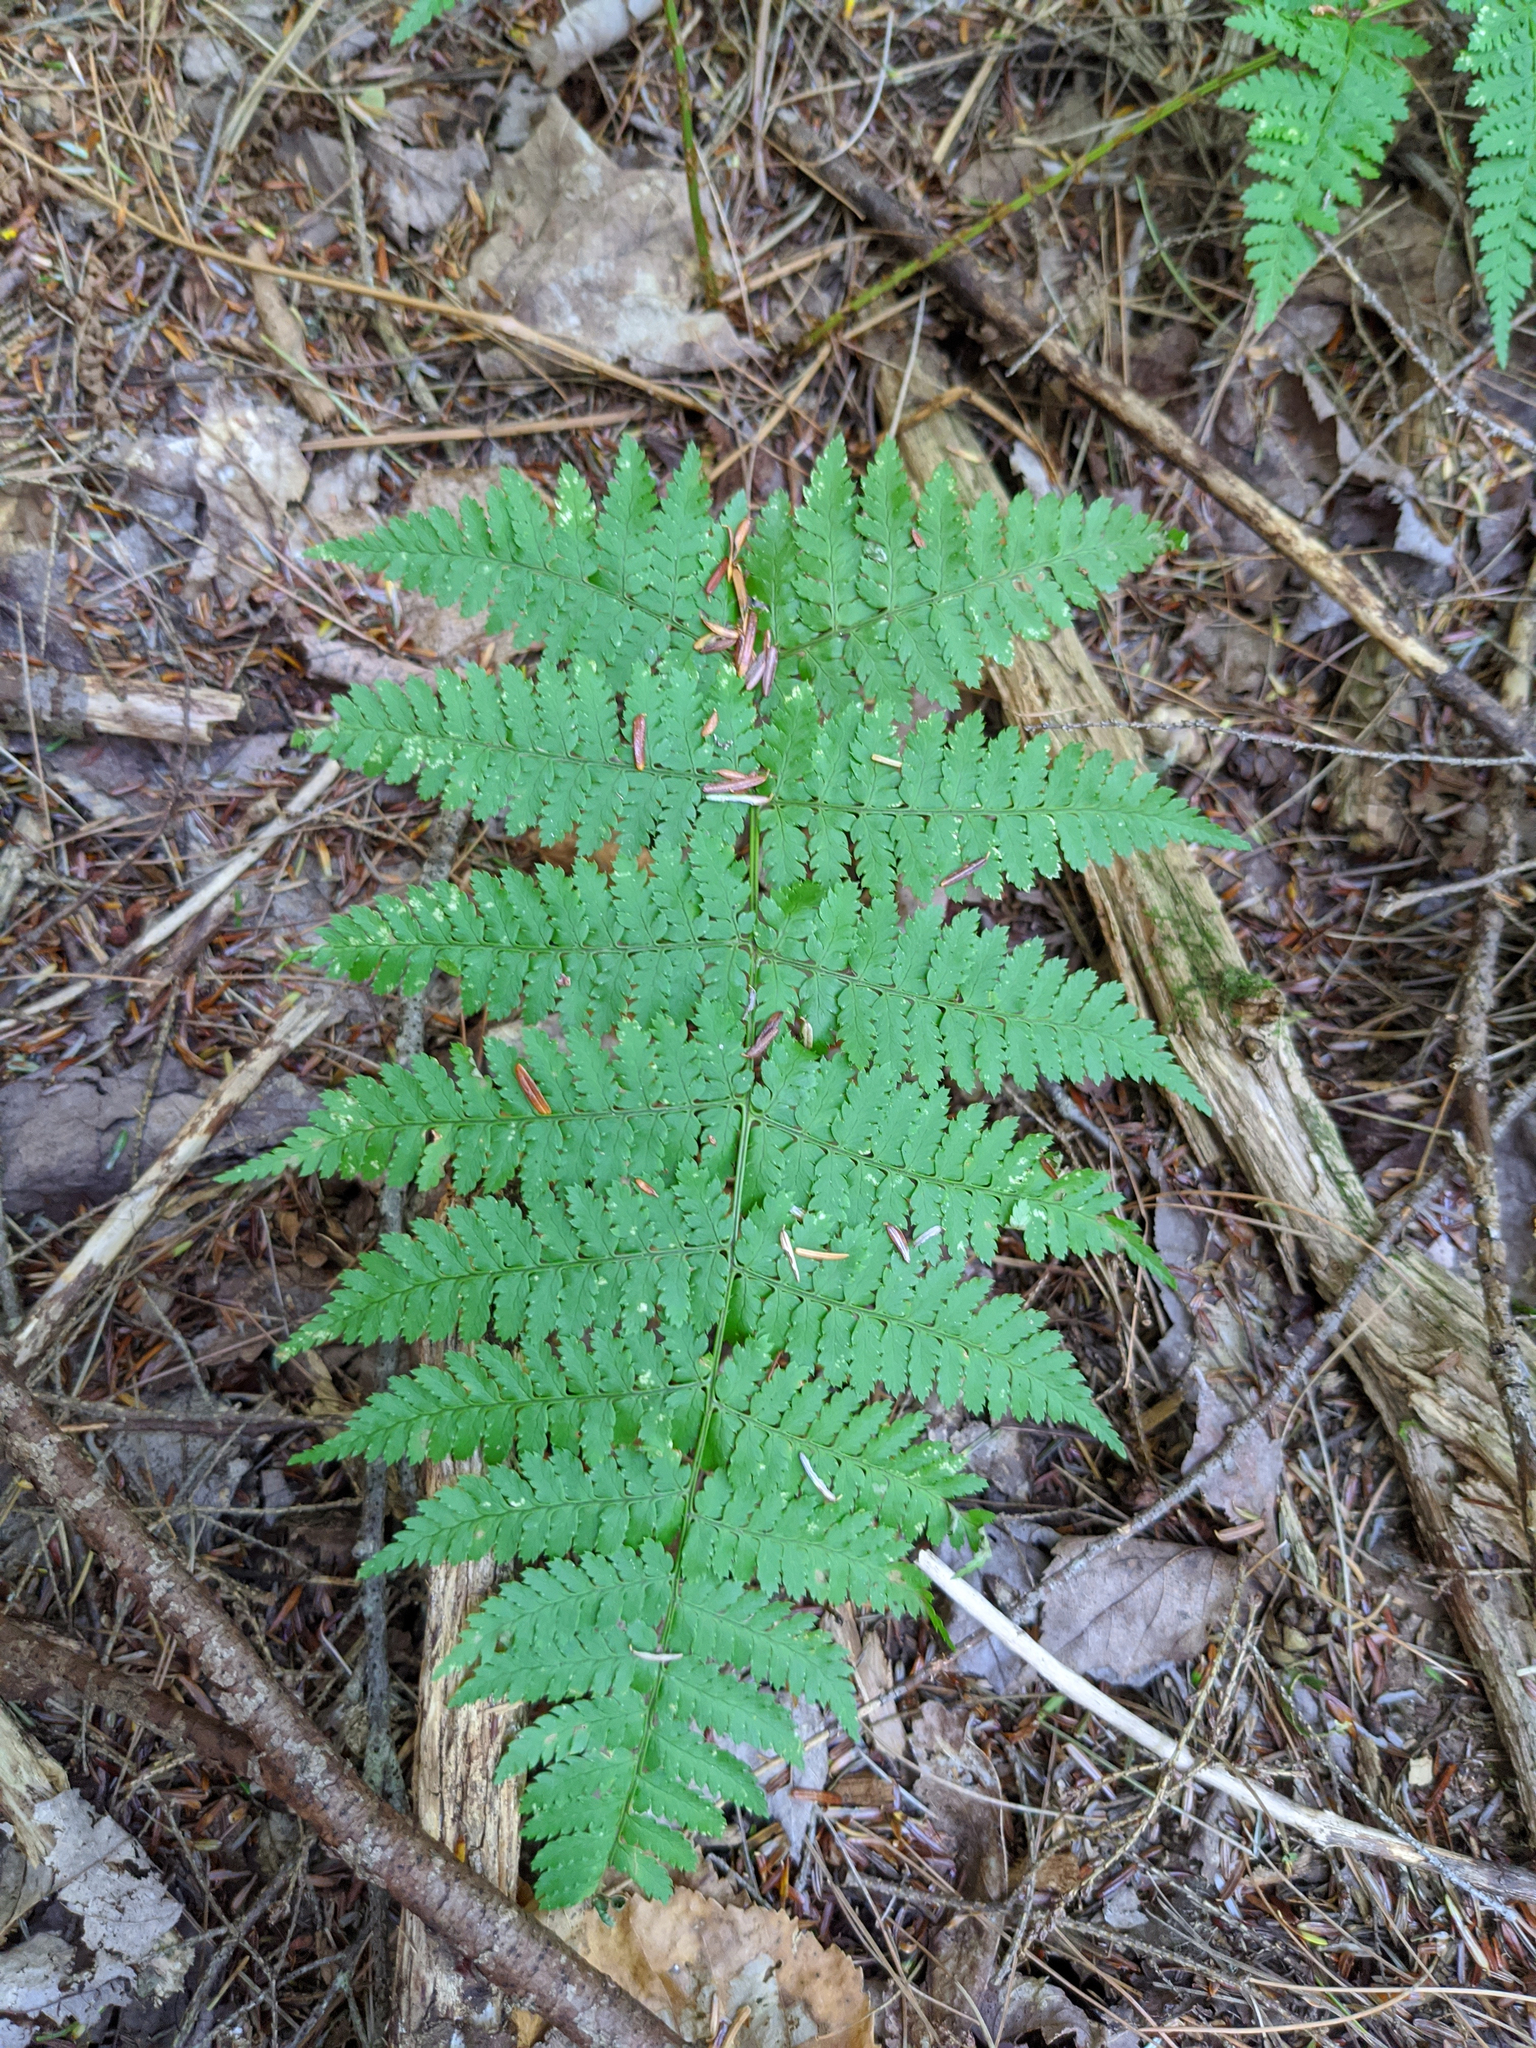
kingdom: Plantae
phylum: Tracheophyta
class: Polypodiopsida
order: Polypodiales
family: Dryopteridaceae
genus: Dryopteris
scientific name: Dryopteris intermedia
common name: Evergreen wood fern
